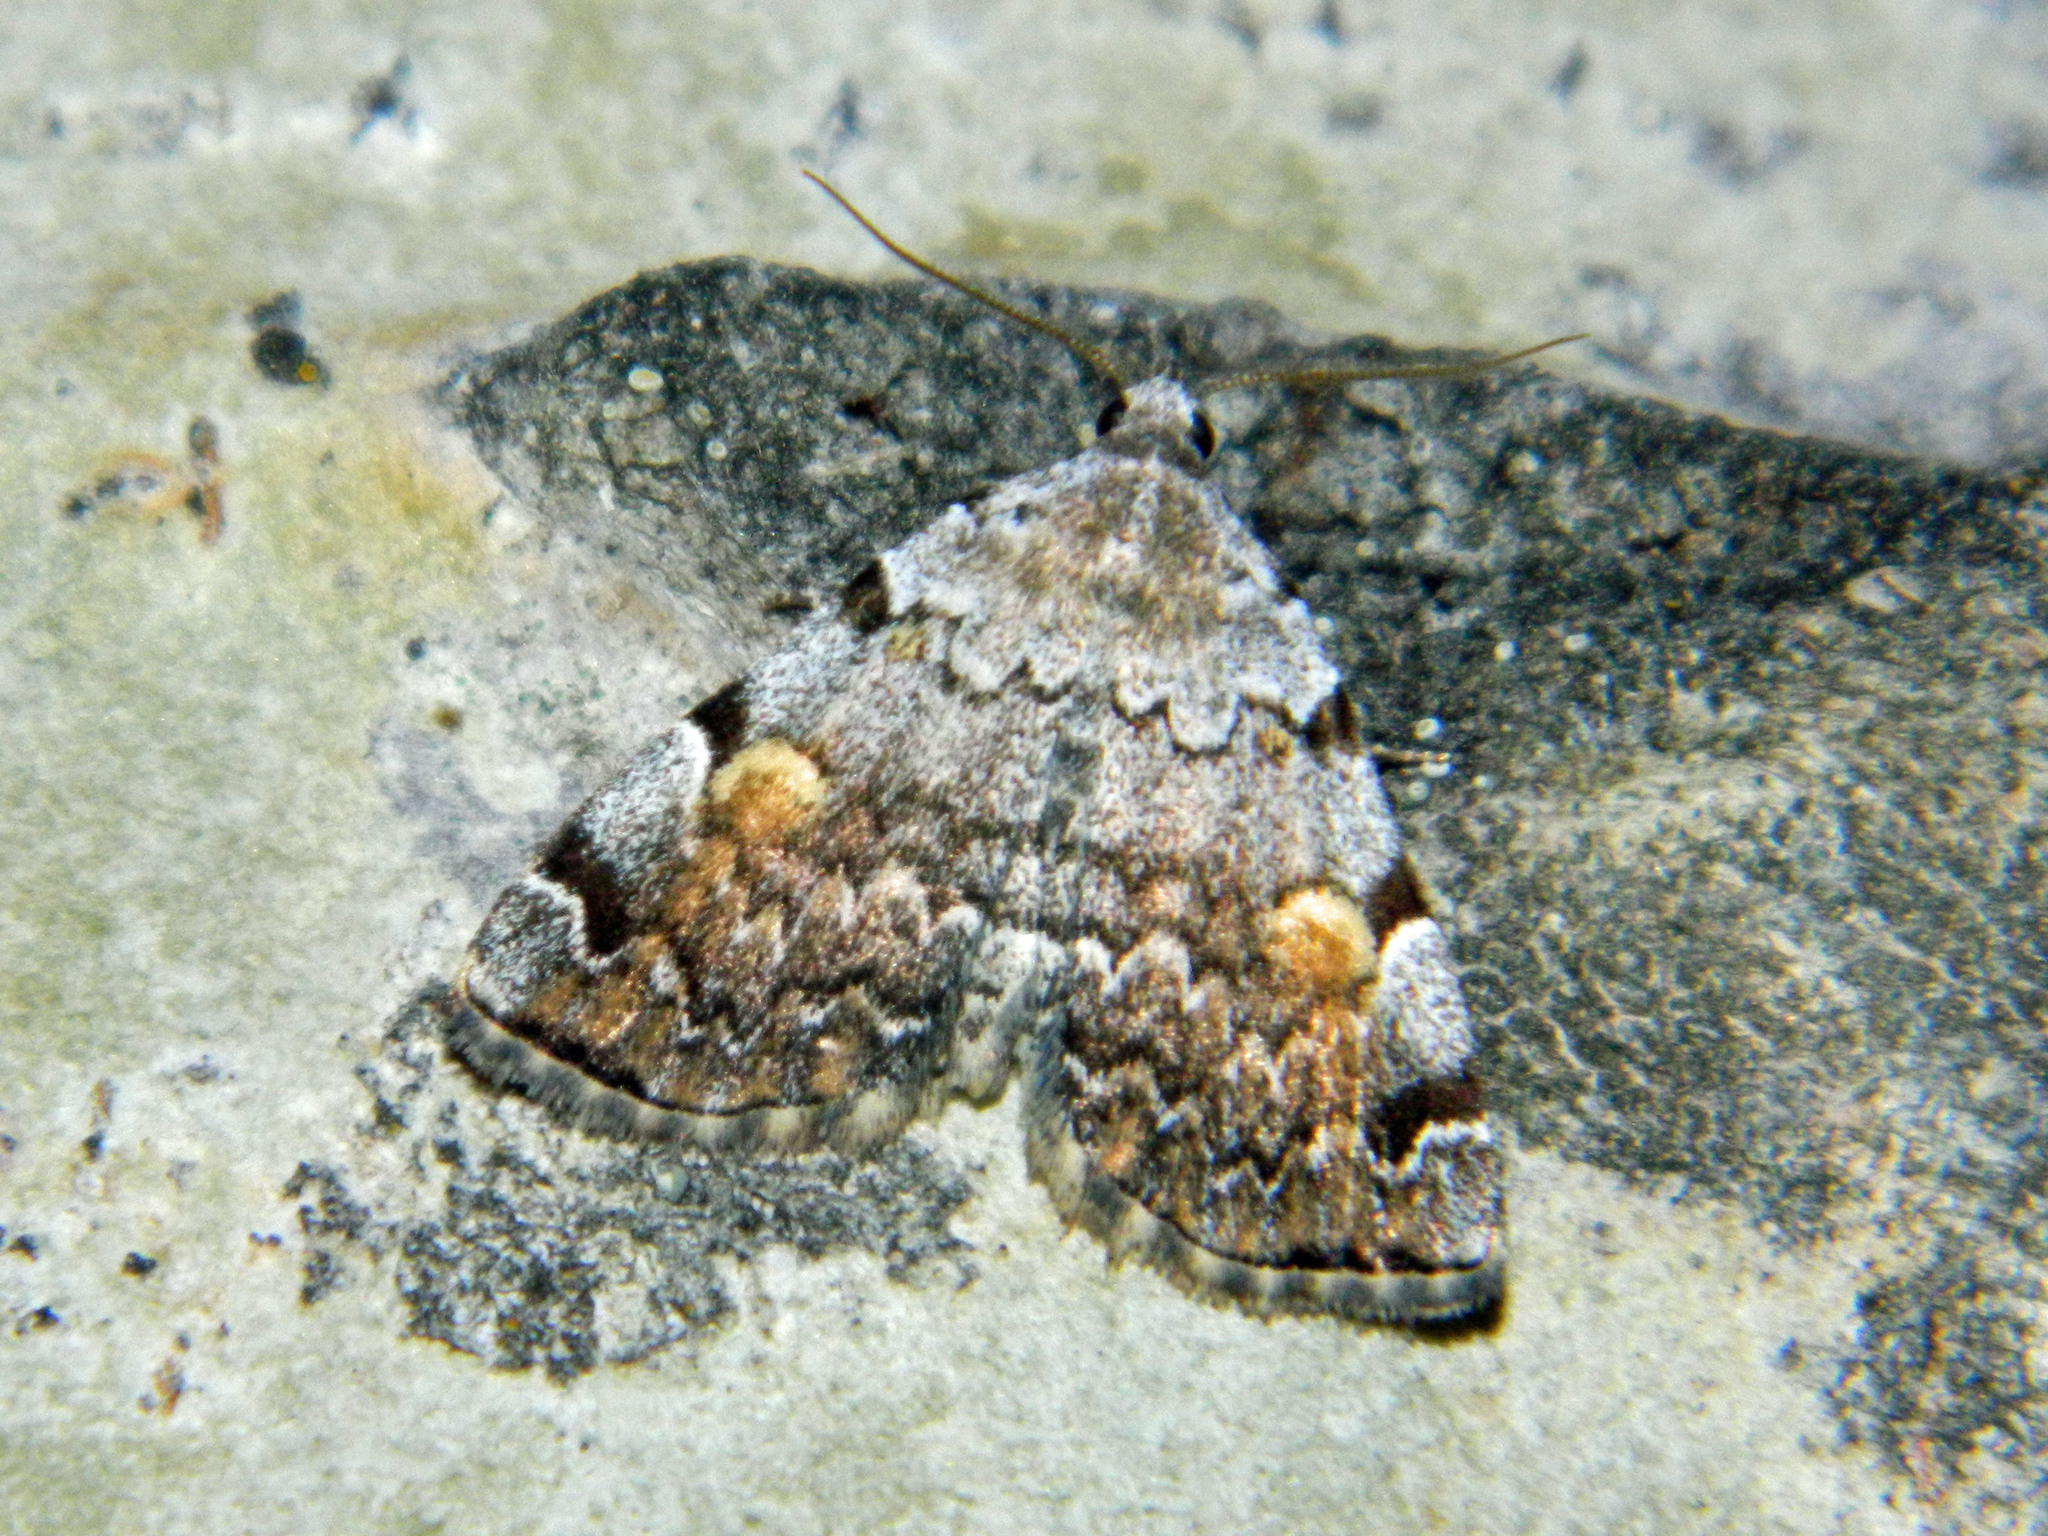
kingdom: Animalia
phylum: Arthropoda
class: Insecta
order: Lepidoptera
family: Erebidae
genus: Idia
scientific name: Idia americalis
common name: American idia moth
